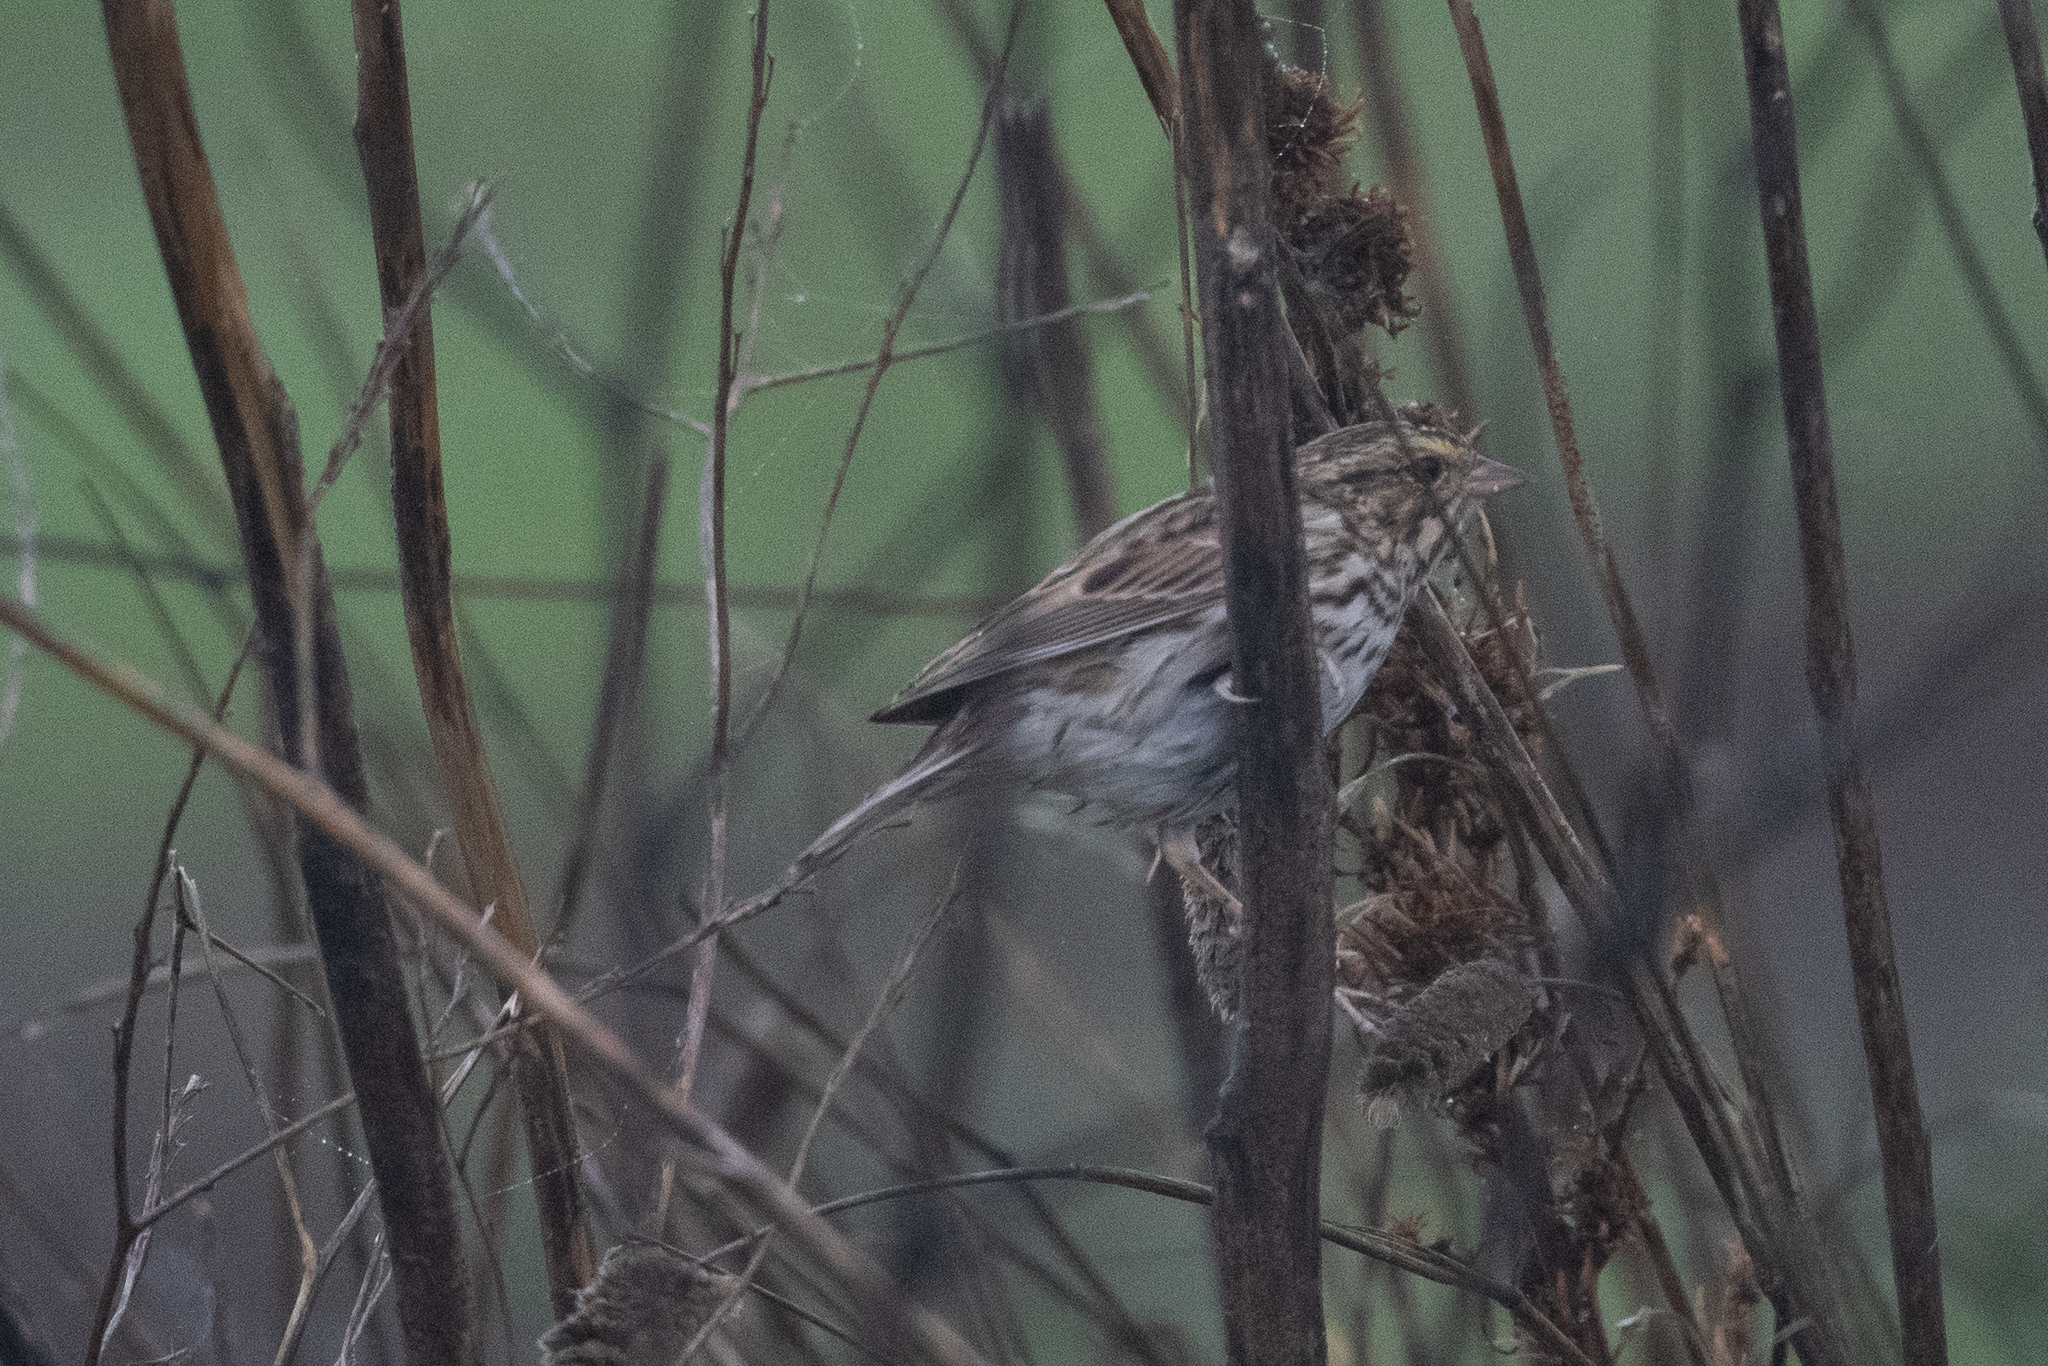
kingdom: Animalia
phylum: Chordata
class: Aves
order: Passeriformes
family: Passerellidae
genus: Passerculus
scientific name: Passerculus sandwichensis
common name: Savannah sparrow
